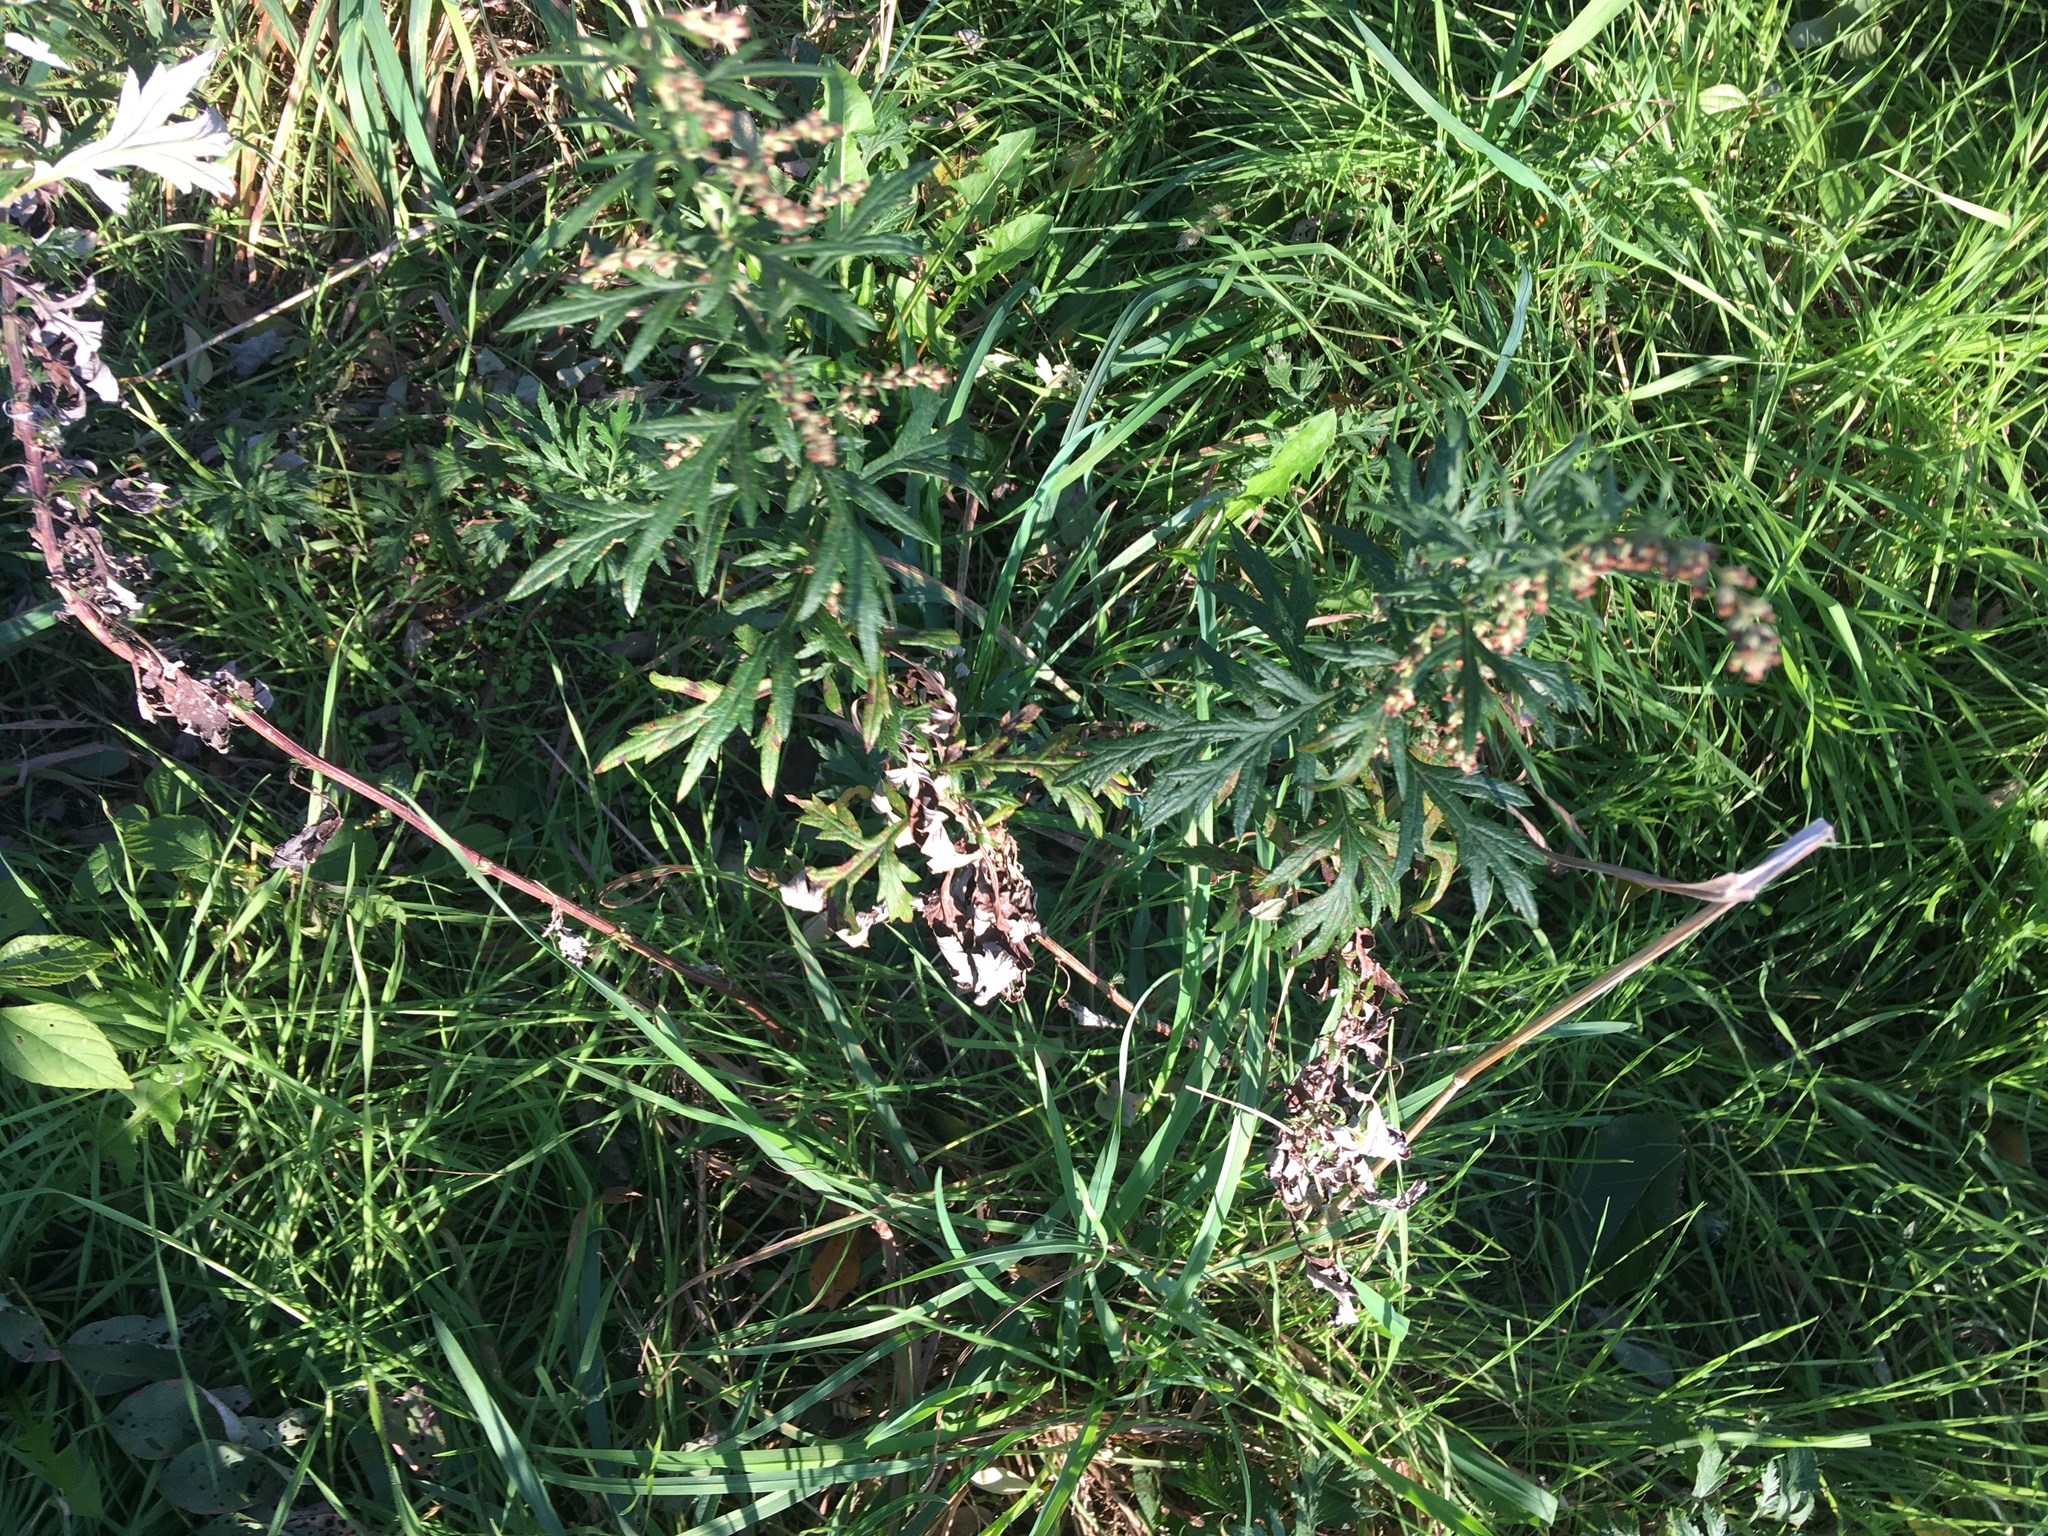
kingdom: Plantae
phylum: Tracheophyta
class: Magnoliopsida
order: Asterales
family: Asteraceae
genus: Artemisia
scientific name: Artemisia vulgaris
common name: Mugwort
